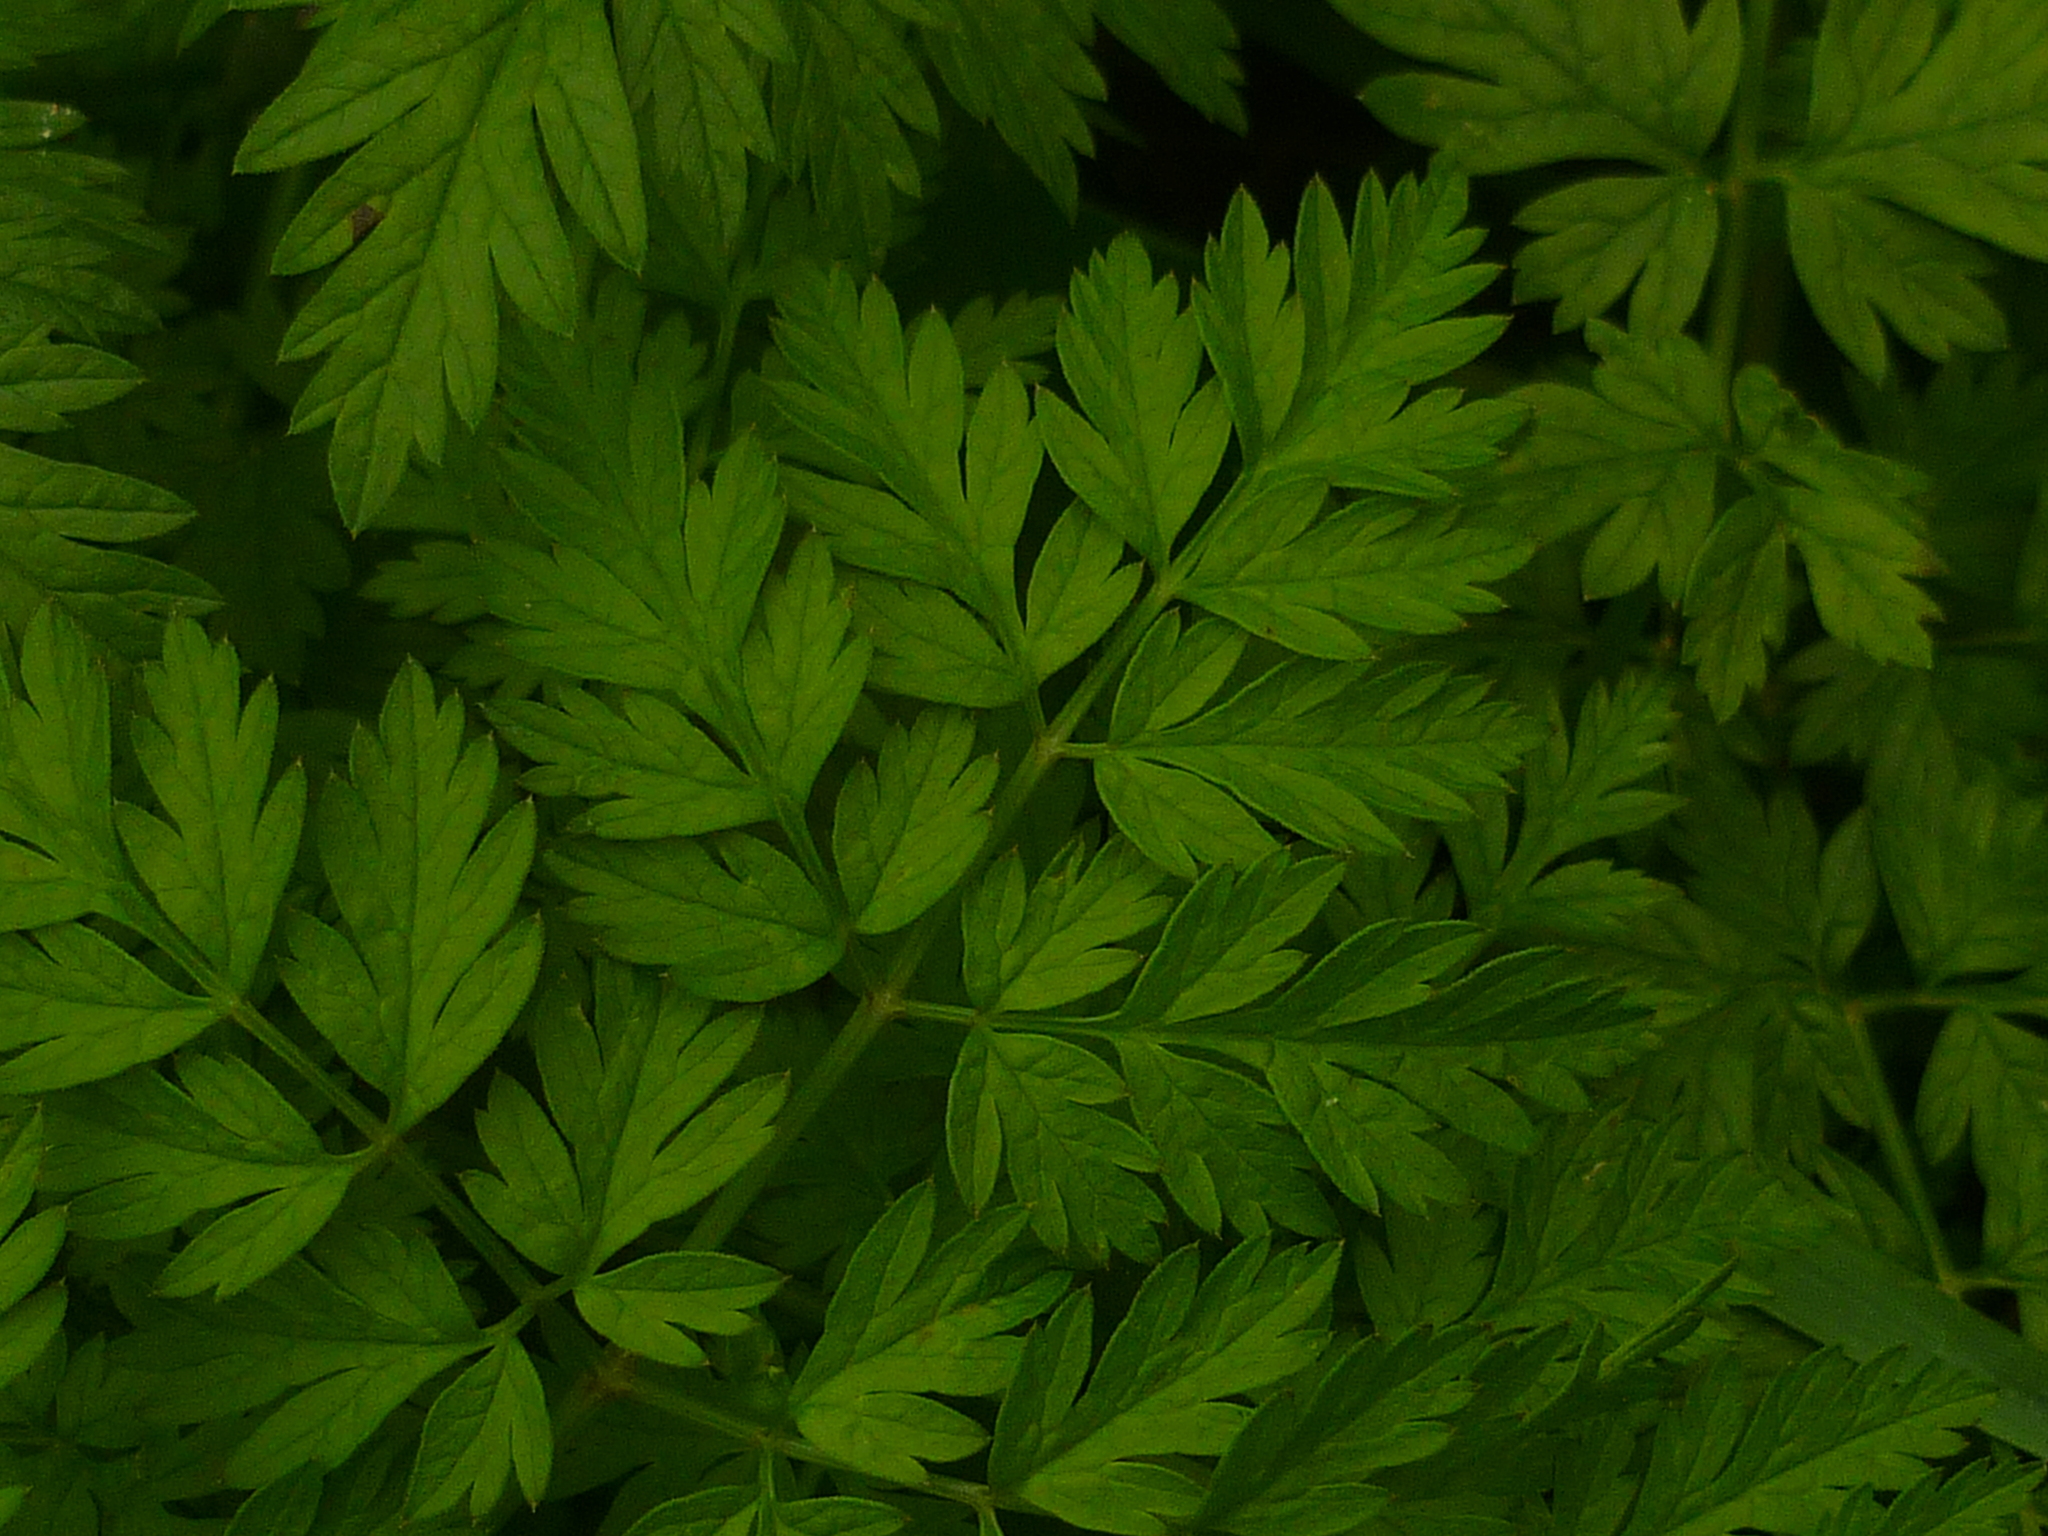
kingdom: Plantae
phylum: Tracheophyta
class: Magnoliopsida
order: Apiales
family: Apiaceae
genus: Anthriscus
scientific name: Anthriscus sylvestris
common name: Cow parsley
